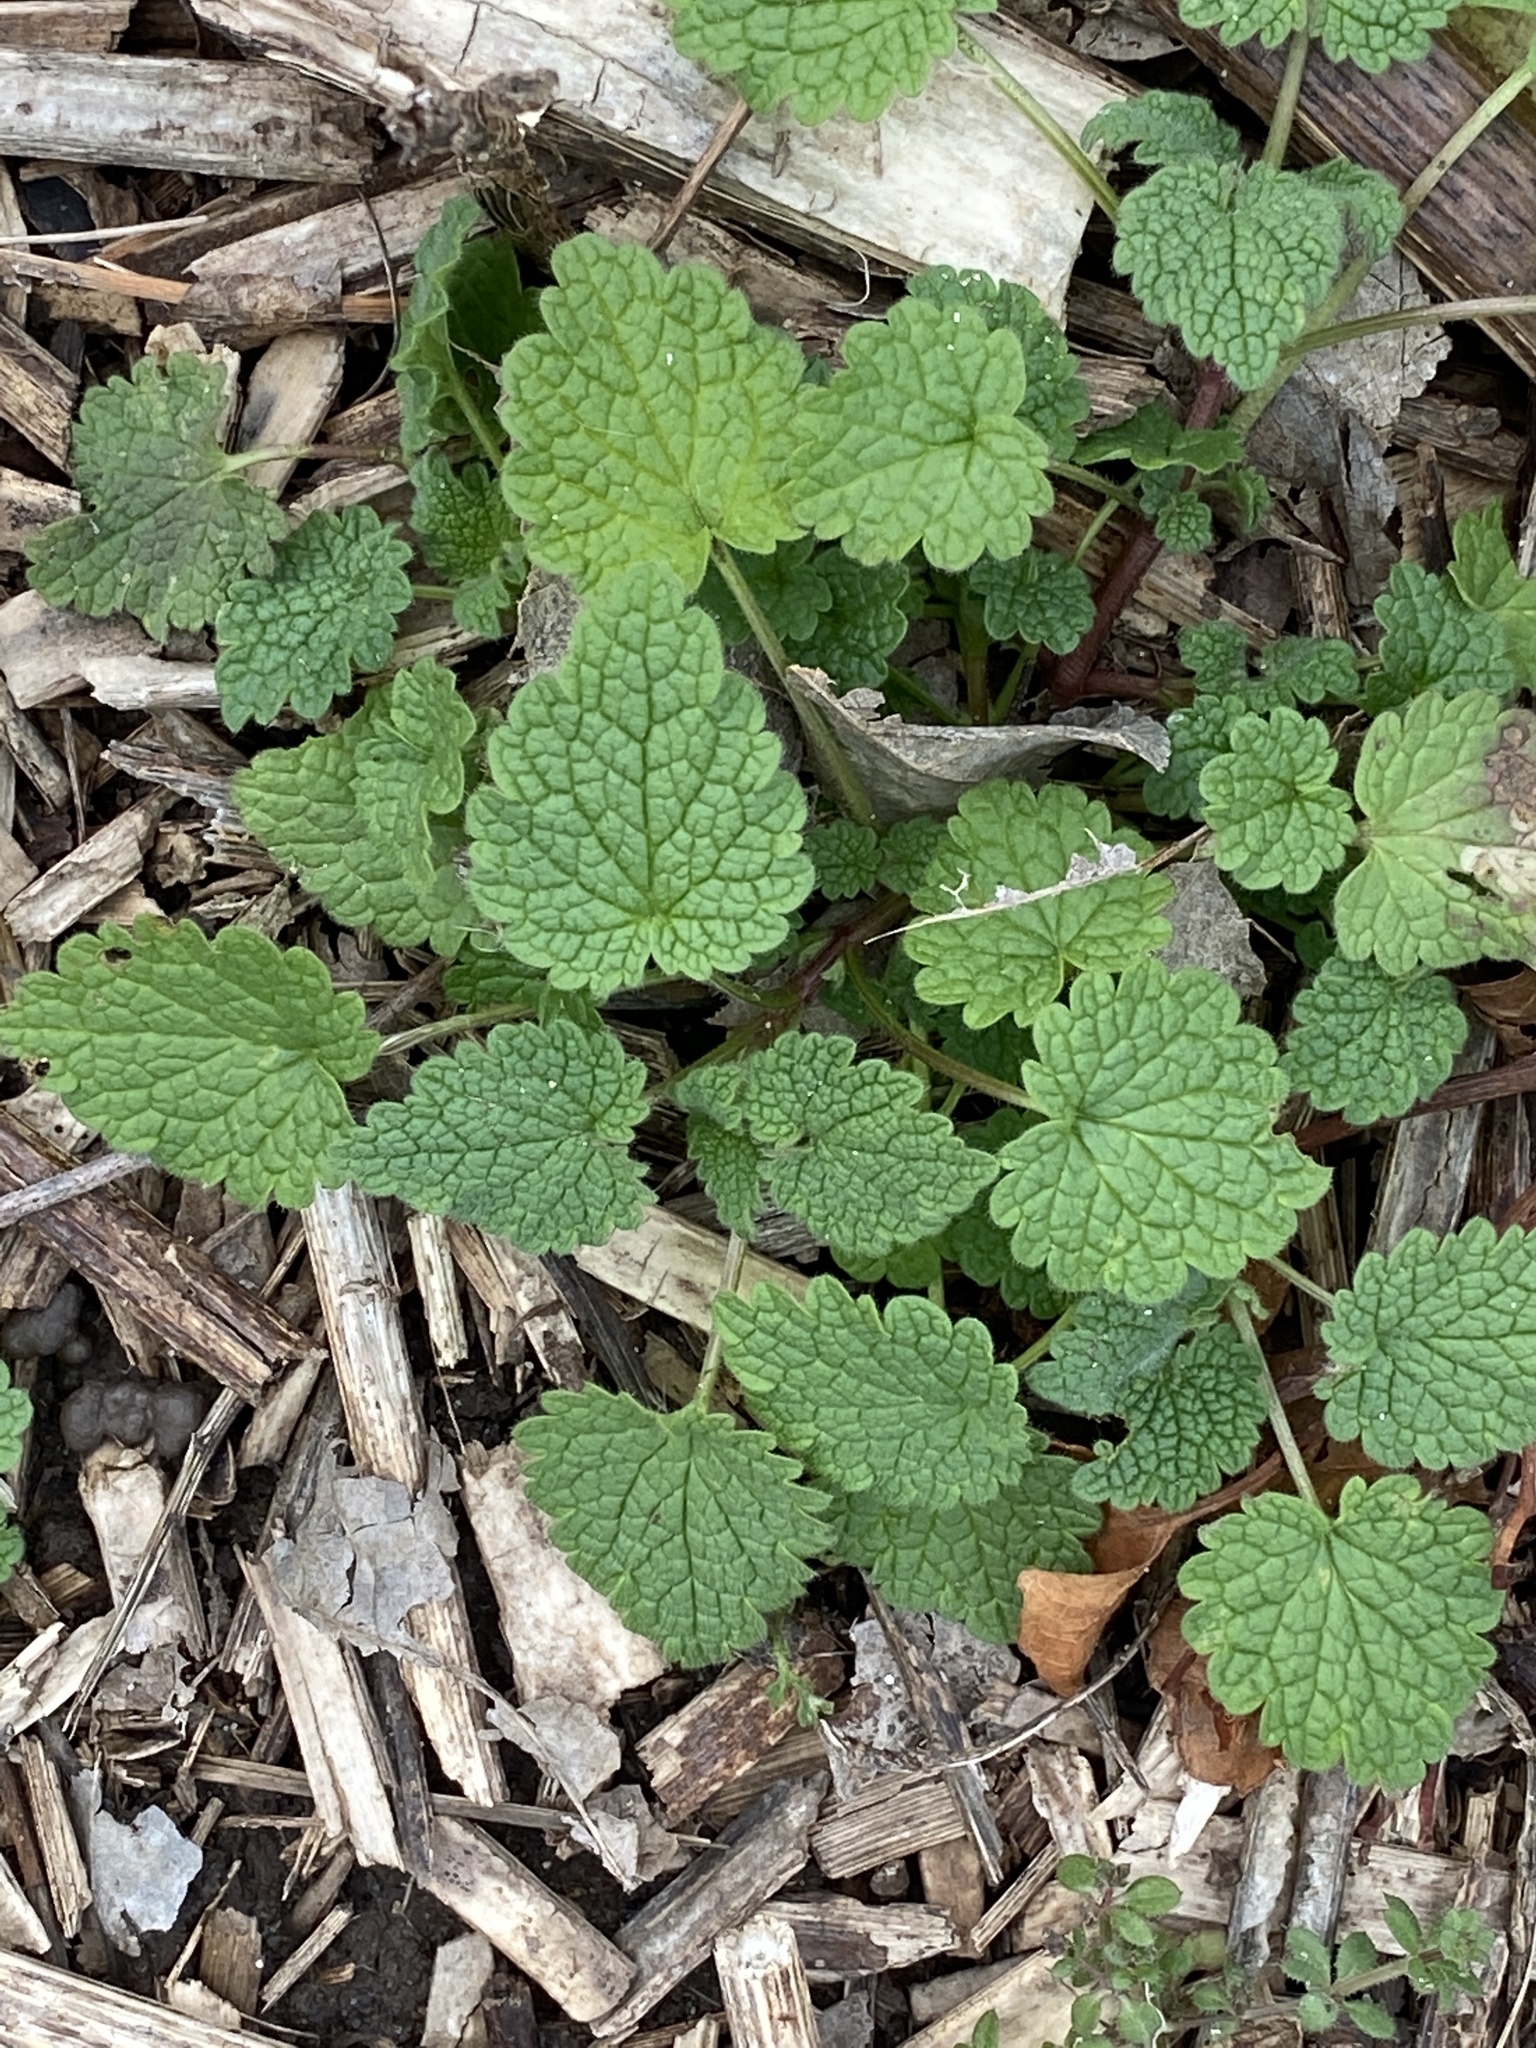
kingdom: Plantae
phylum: Tracheophyta
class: Magnoliopsida
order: Lamiales
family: Lamiaceae
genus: Lamium
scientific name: Lamium purpureum
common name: Red dead-nettle
